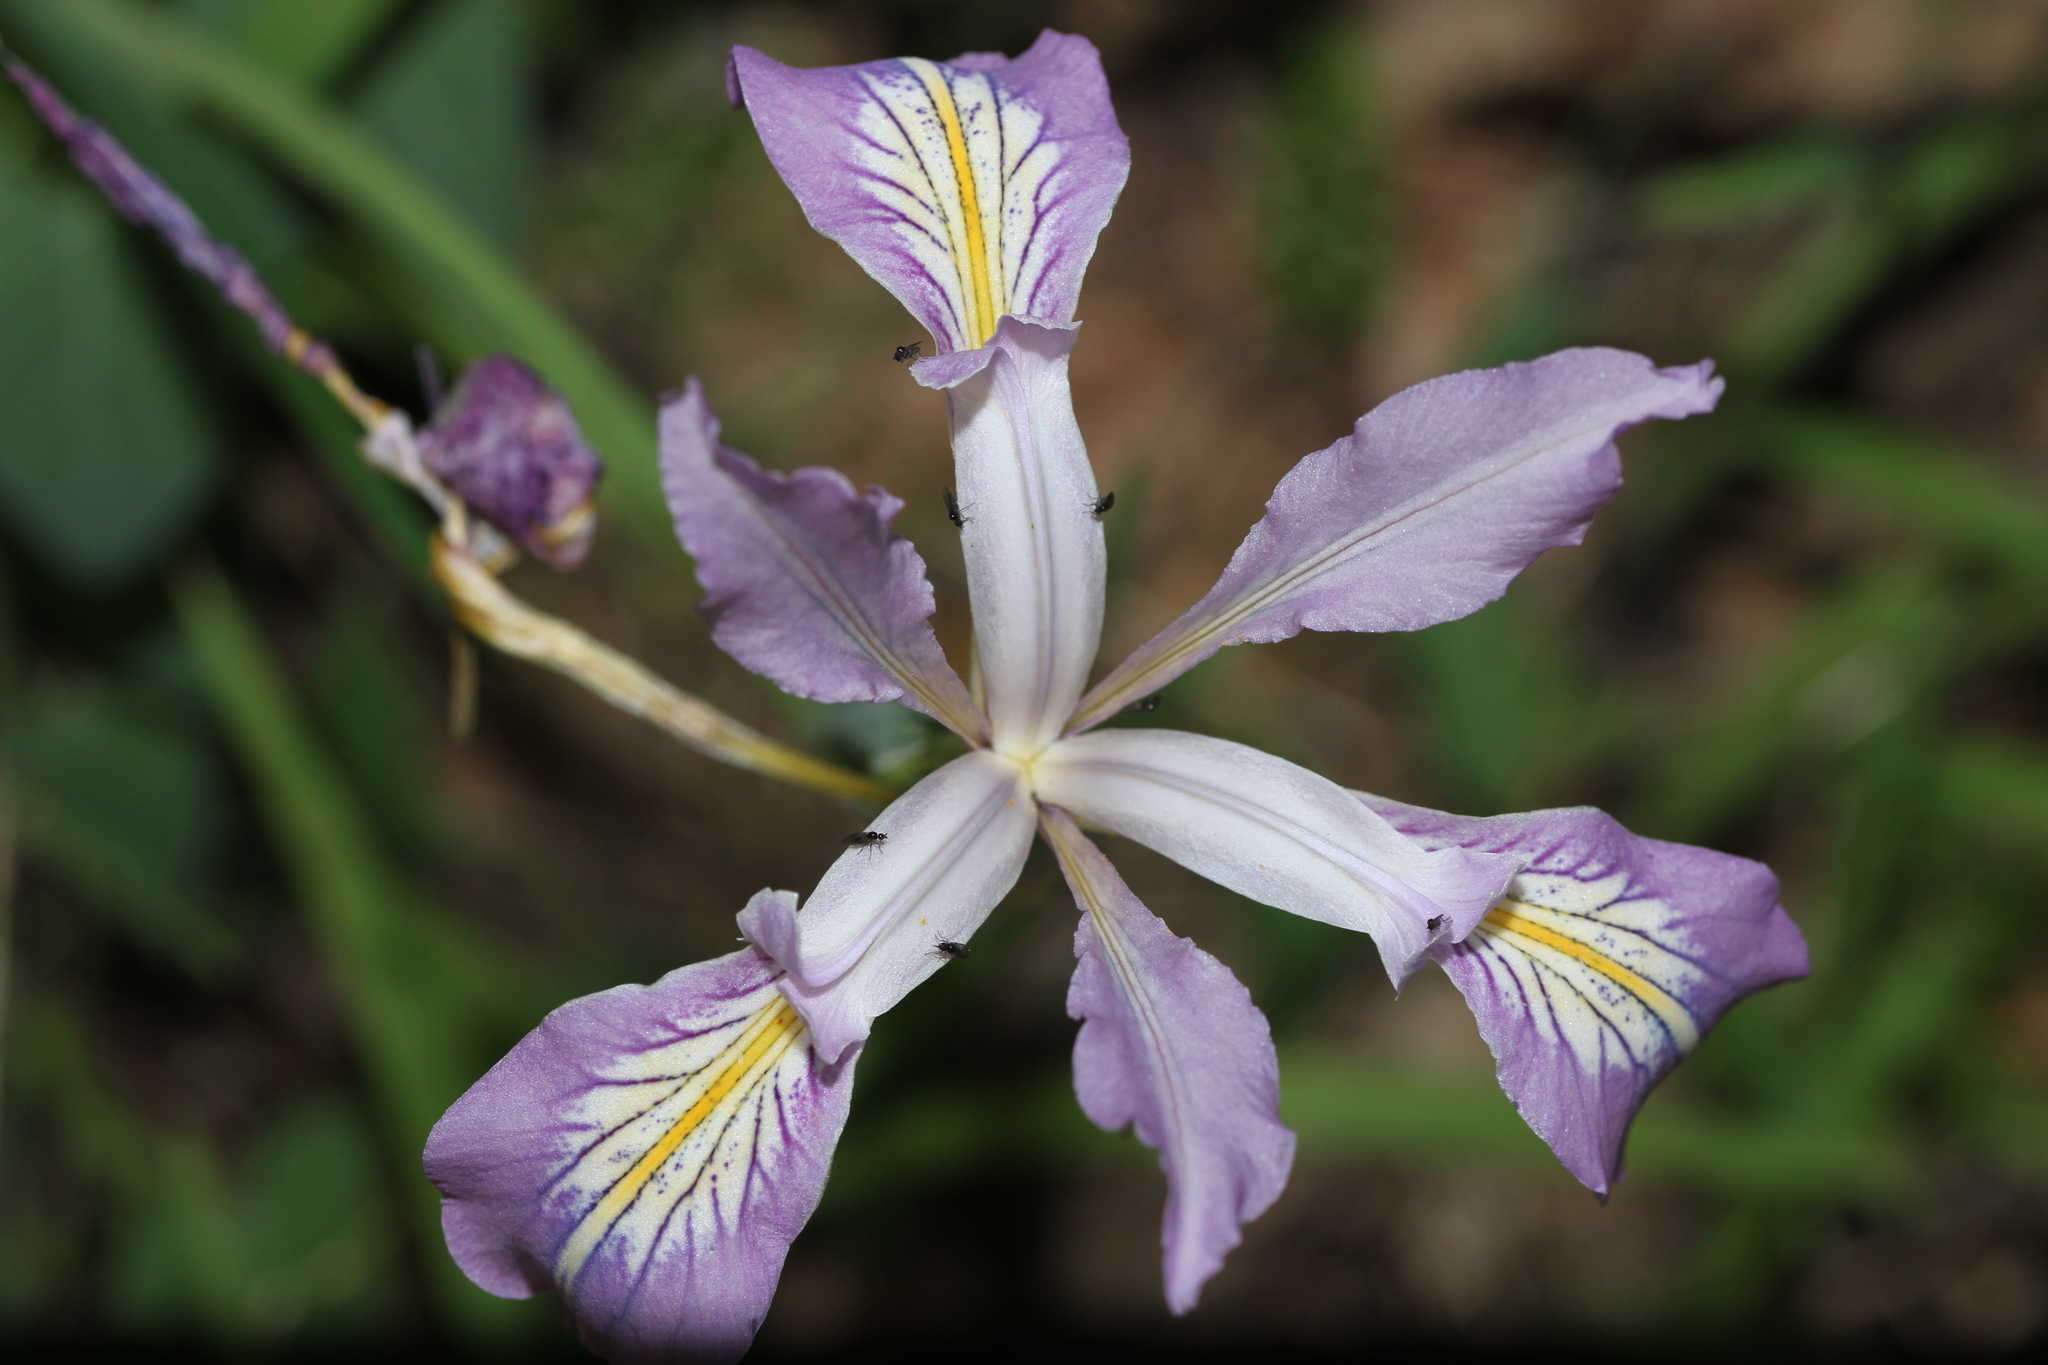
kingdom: Plantae
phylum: Tracheophyta
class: Liliopsida
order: Asparagales
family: Iridaceae
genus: Iris
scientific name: Iris douglasiana
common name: Marin iris
